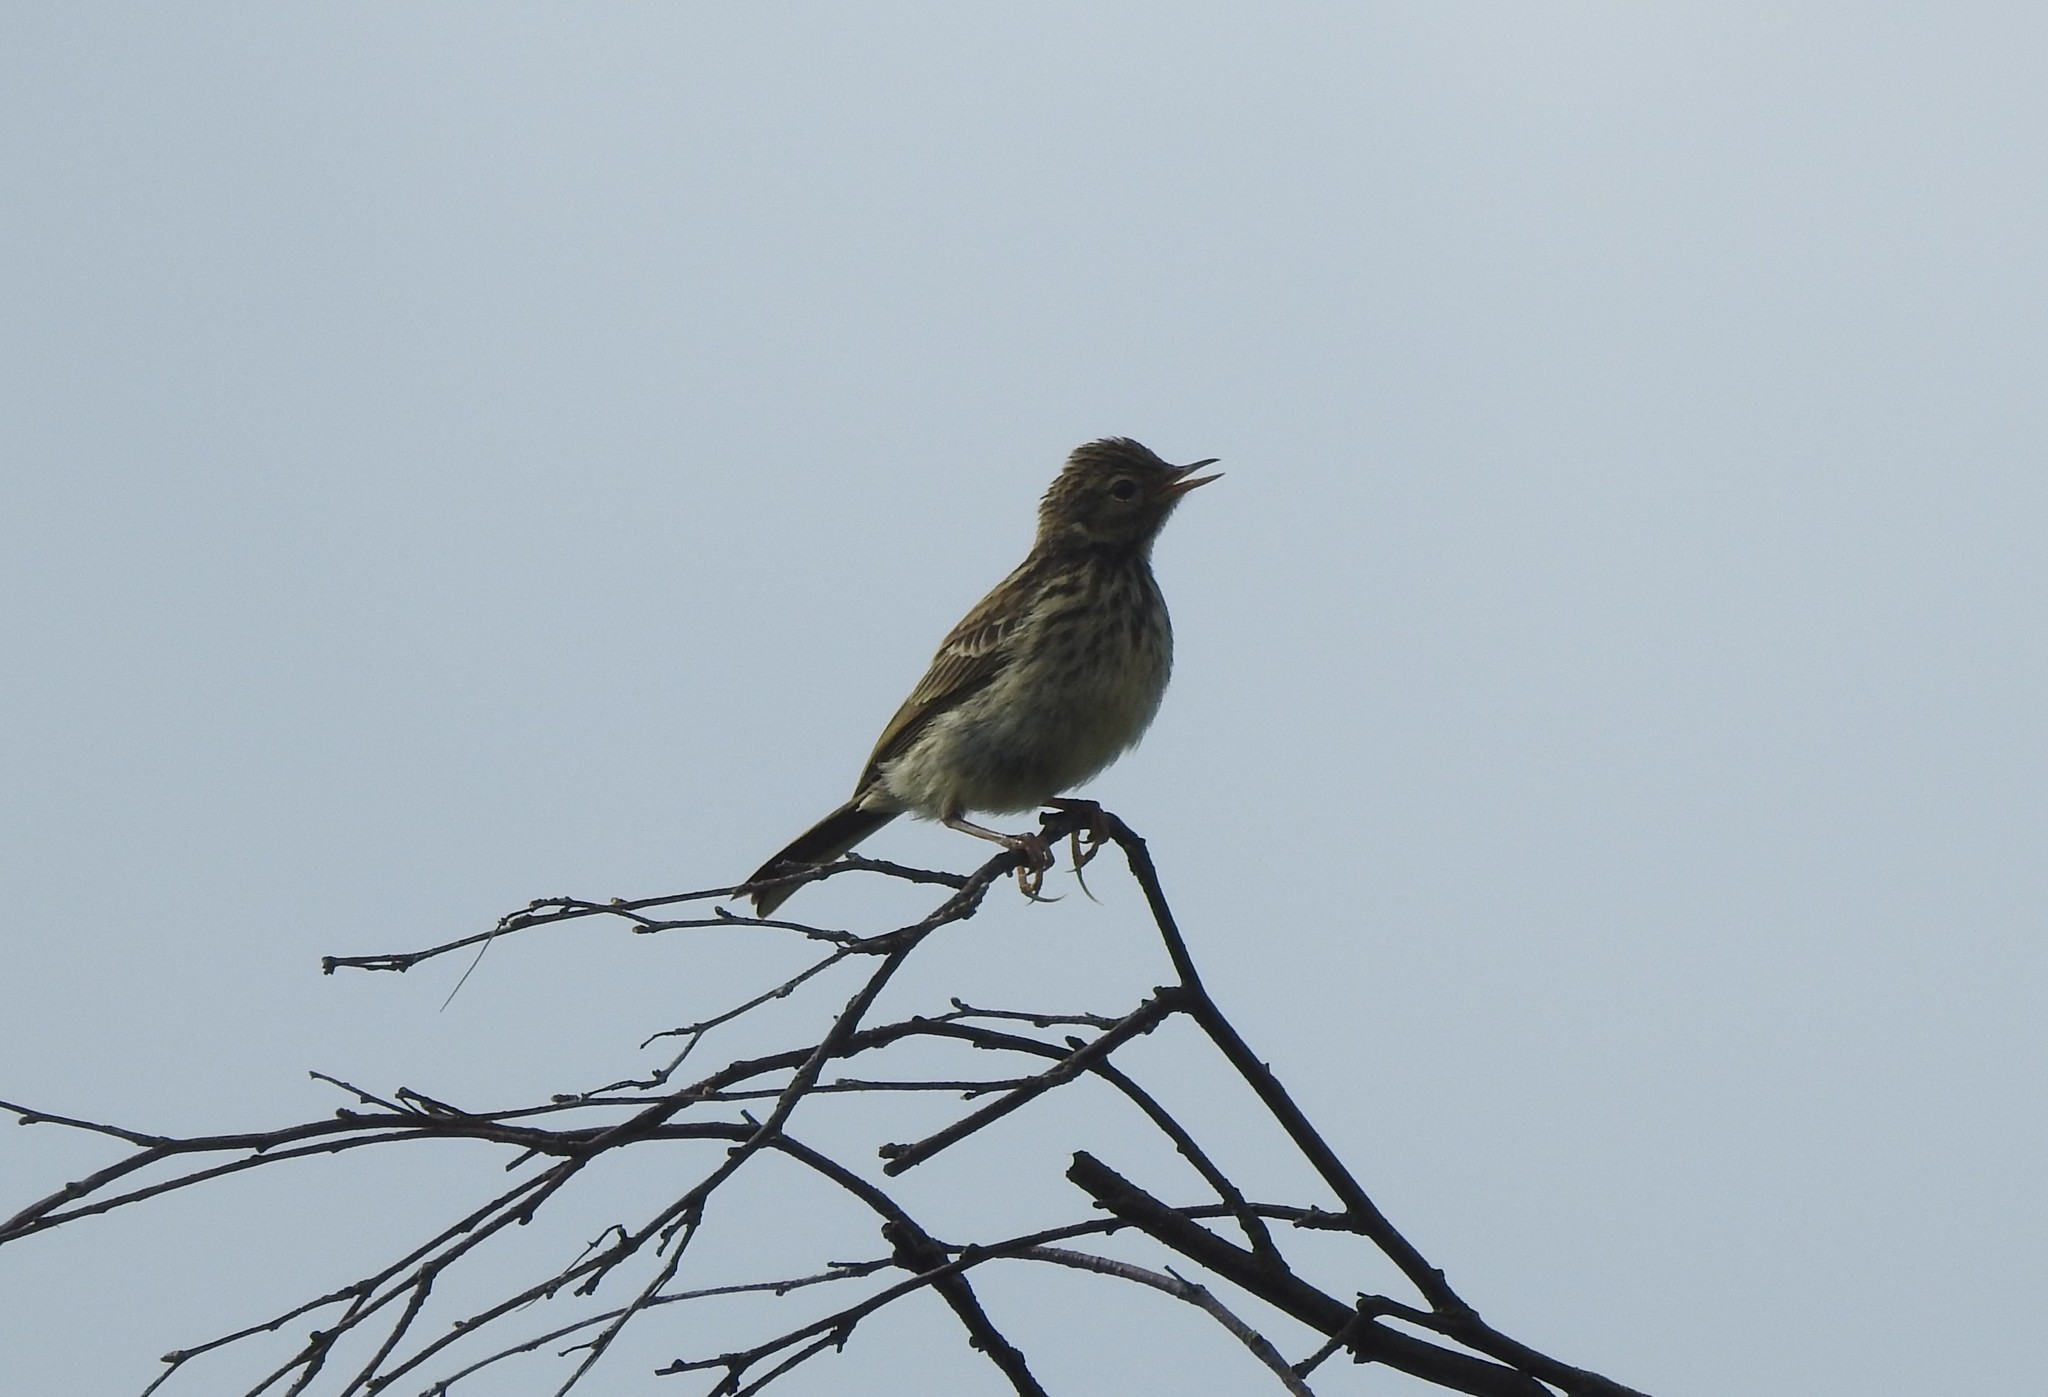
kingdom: Animalia
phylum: Chordata
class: Aves
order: Passeriformes
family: Motacillidae
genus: Anthus
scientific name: Anthus pratensis
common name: Meadow pipit
